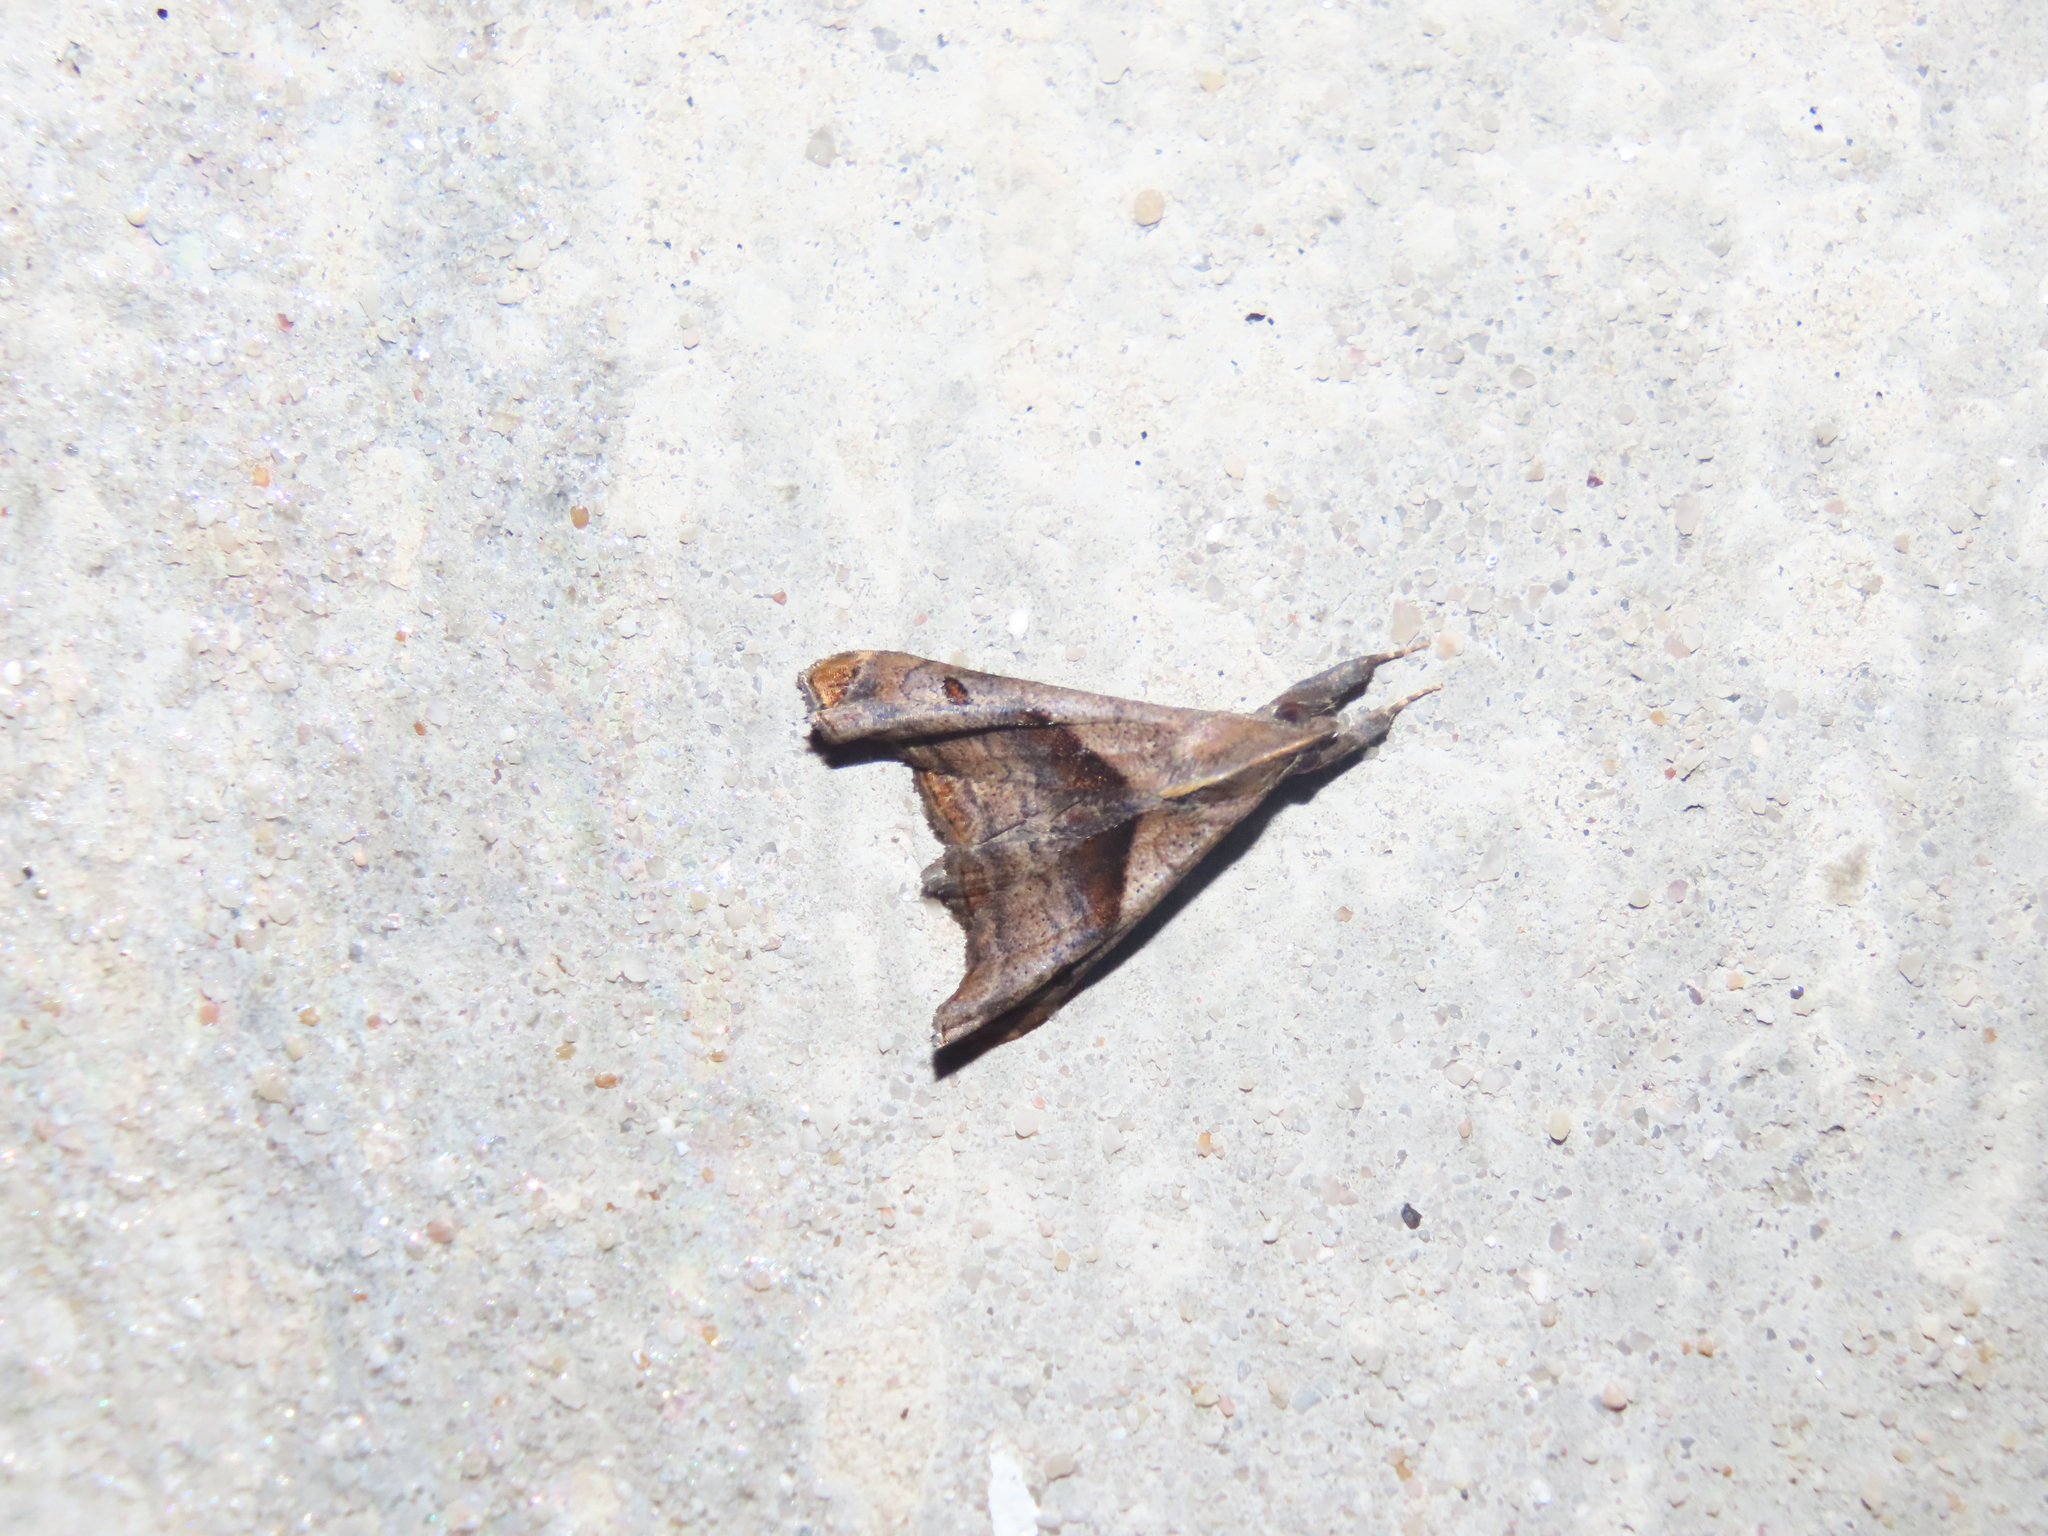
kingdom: Animalia
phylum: Arthropoda
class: Insecta
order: Lepidoptera
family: Erebidae
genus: Palthis
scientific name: Palthis angulalis
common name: Dark-spotted palthis moth
